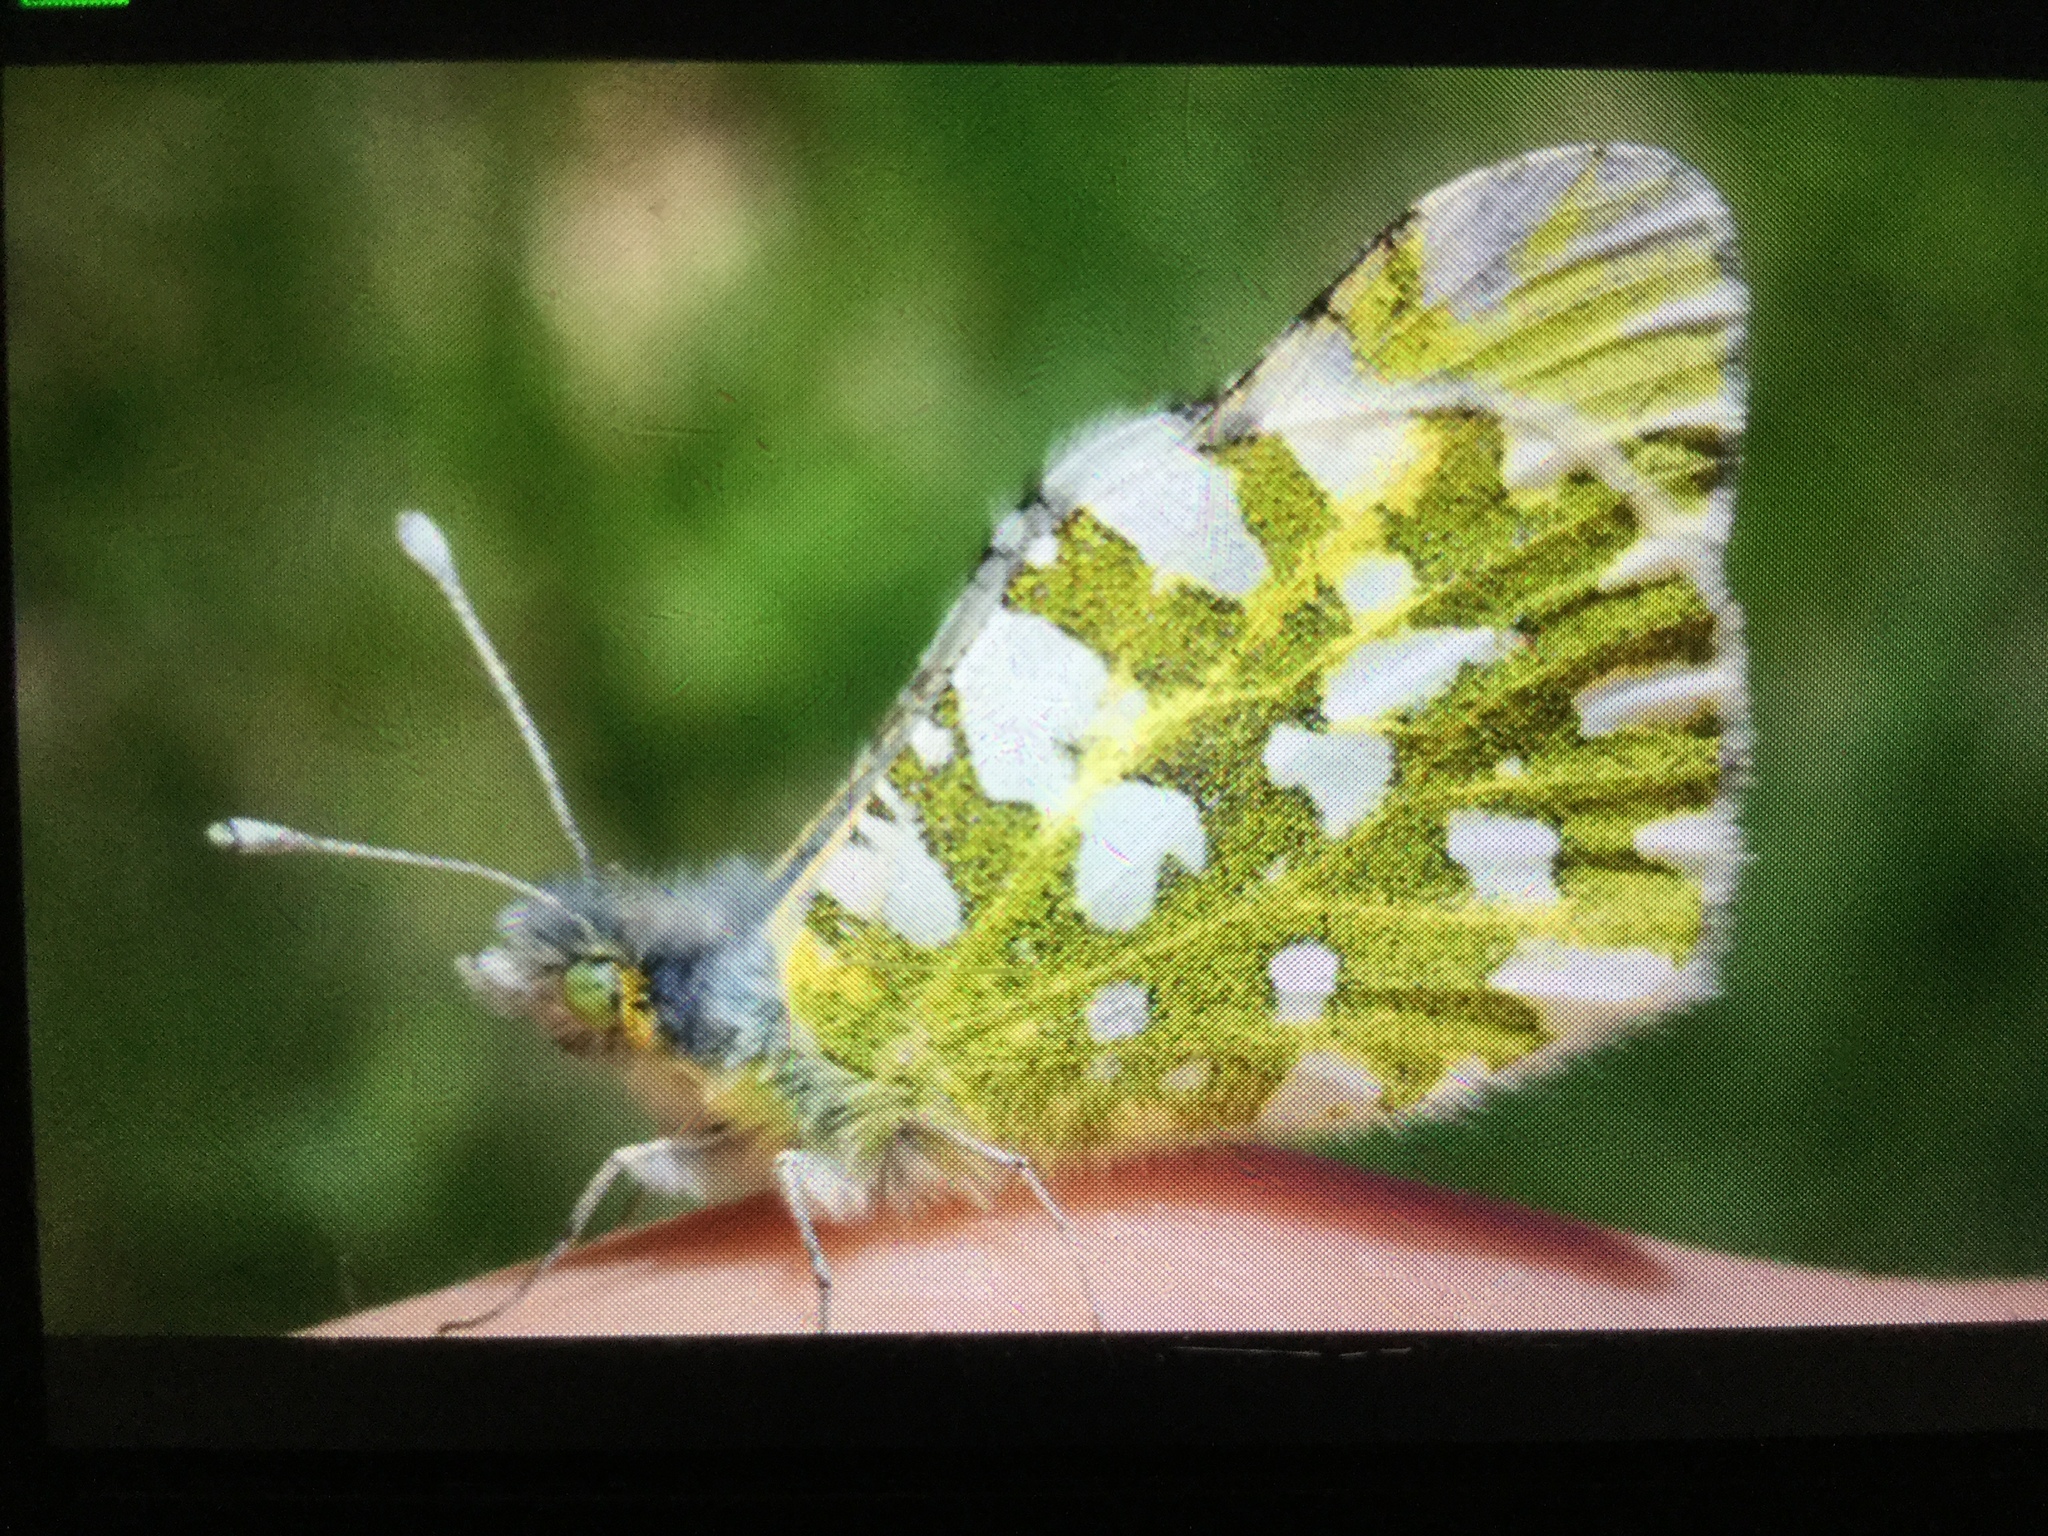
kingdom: Animalia
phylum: Arthropoda
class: Insecta
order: Lepidoptera
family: Pieridae
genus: Euchloe
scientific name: Euchloe crameri
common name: Western dappled white
